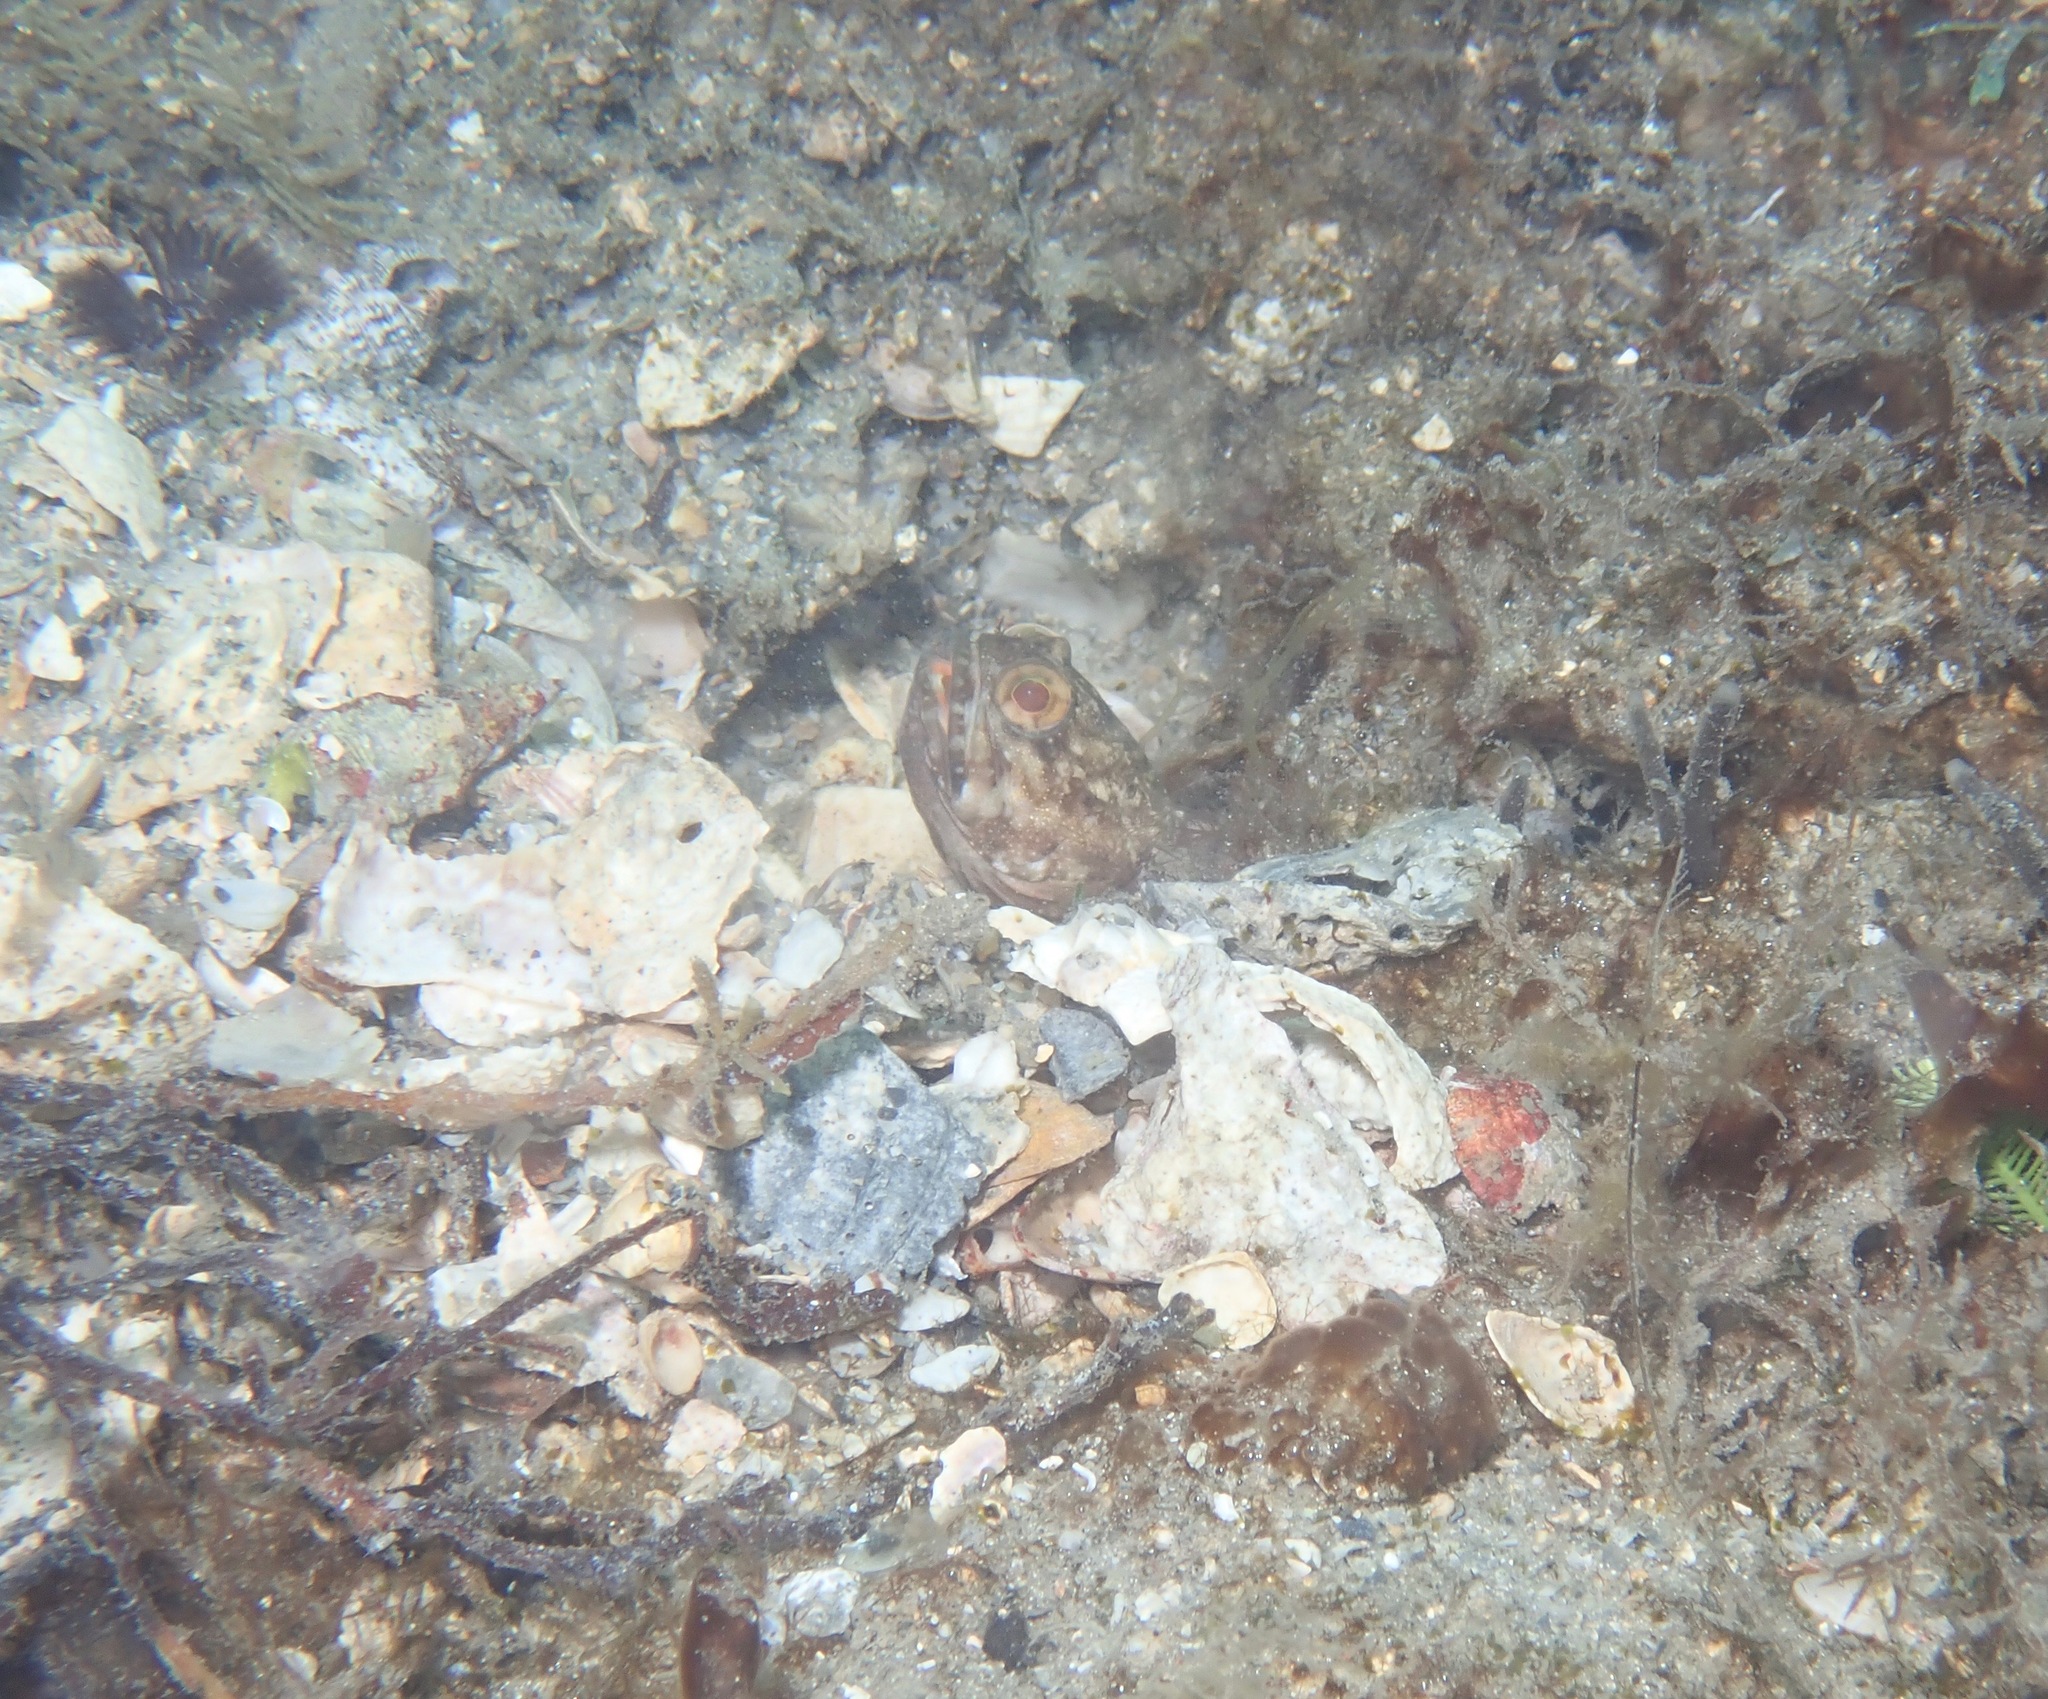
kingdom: Animalia
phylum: Chordata
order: Perciformes
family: Opistognathidae
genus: Opistognathus
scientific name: Opistognathus whitehursti
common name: Dusky jawfish
